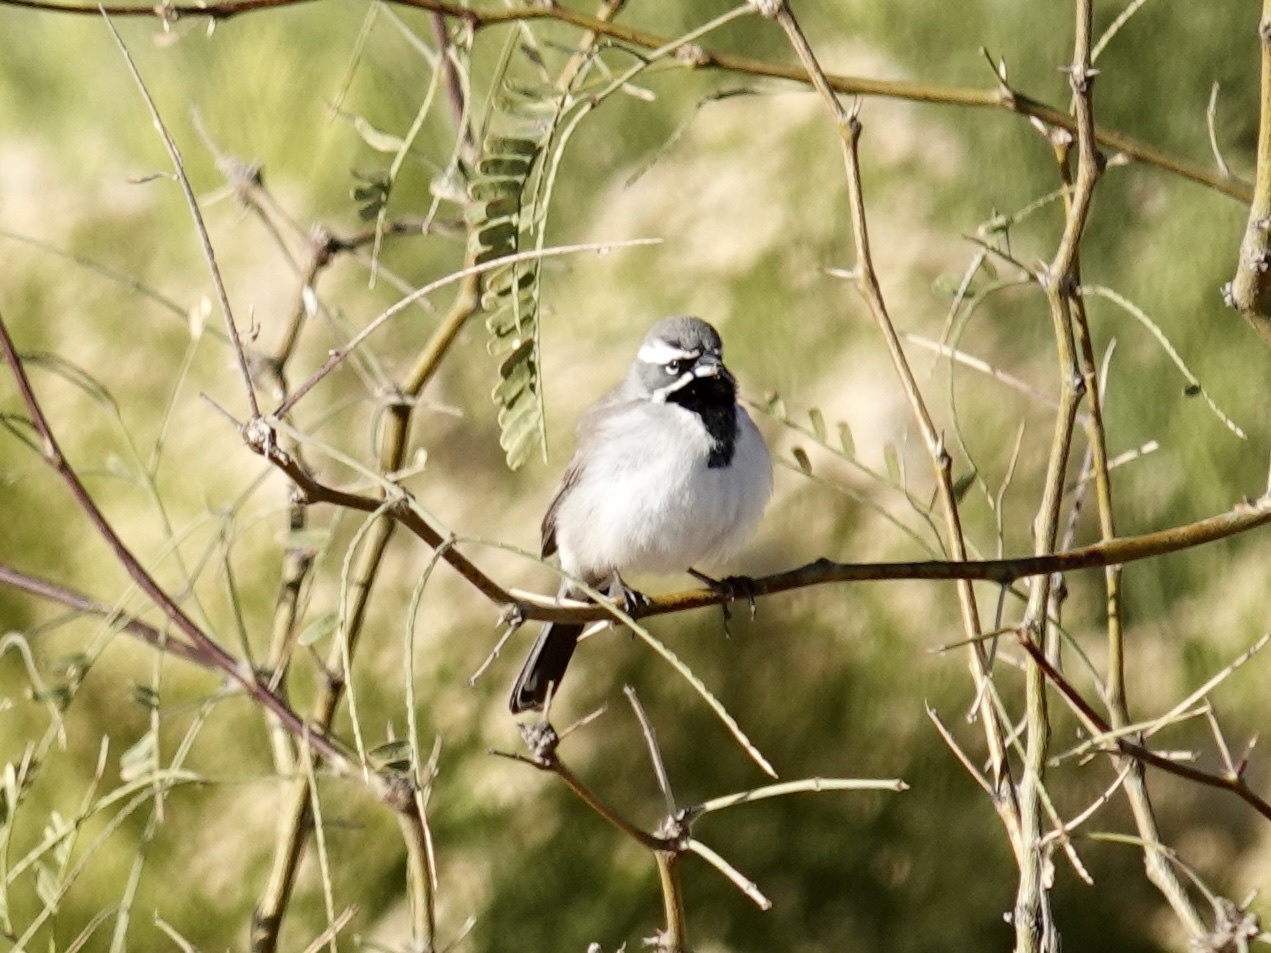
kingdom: Animalia
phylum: Chordata
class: Aves
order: Passeriformes
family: Passerellidae
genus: Amphispiza
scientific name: Amphispiza bilineata
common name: Black-throated sparrow
